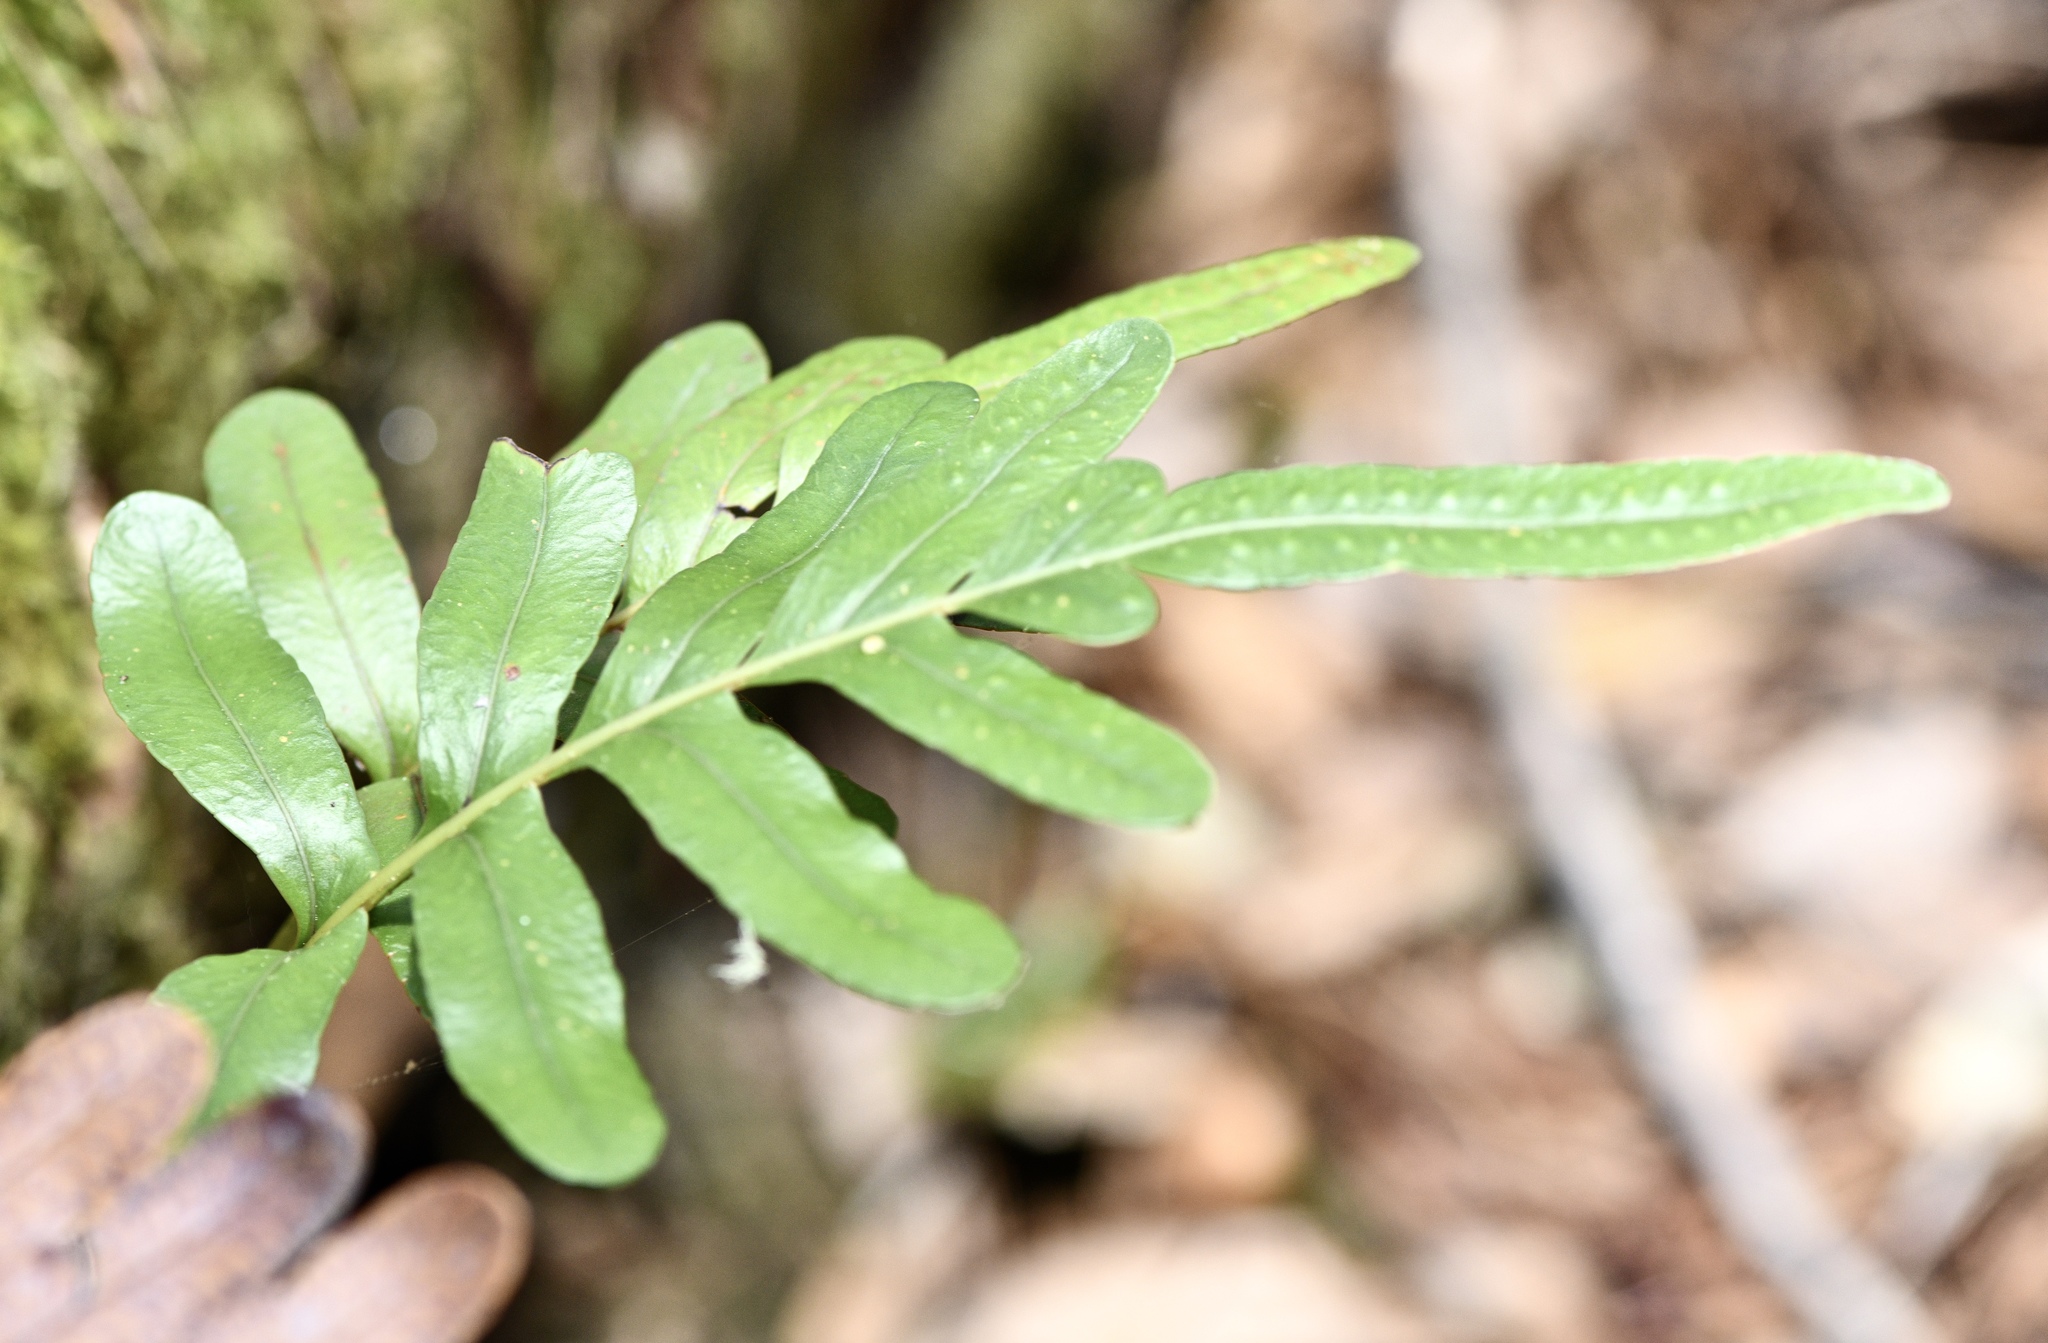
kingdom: Plantae
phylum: Tracheophyta
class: Polypodiopsida
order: Polypodiales
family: Polypodiaceae
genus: Polypodium
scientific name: Polypodium scouleri
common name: Scouler's polypody
